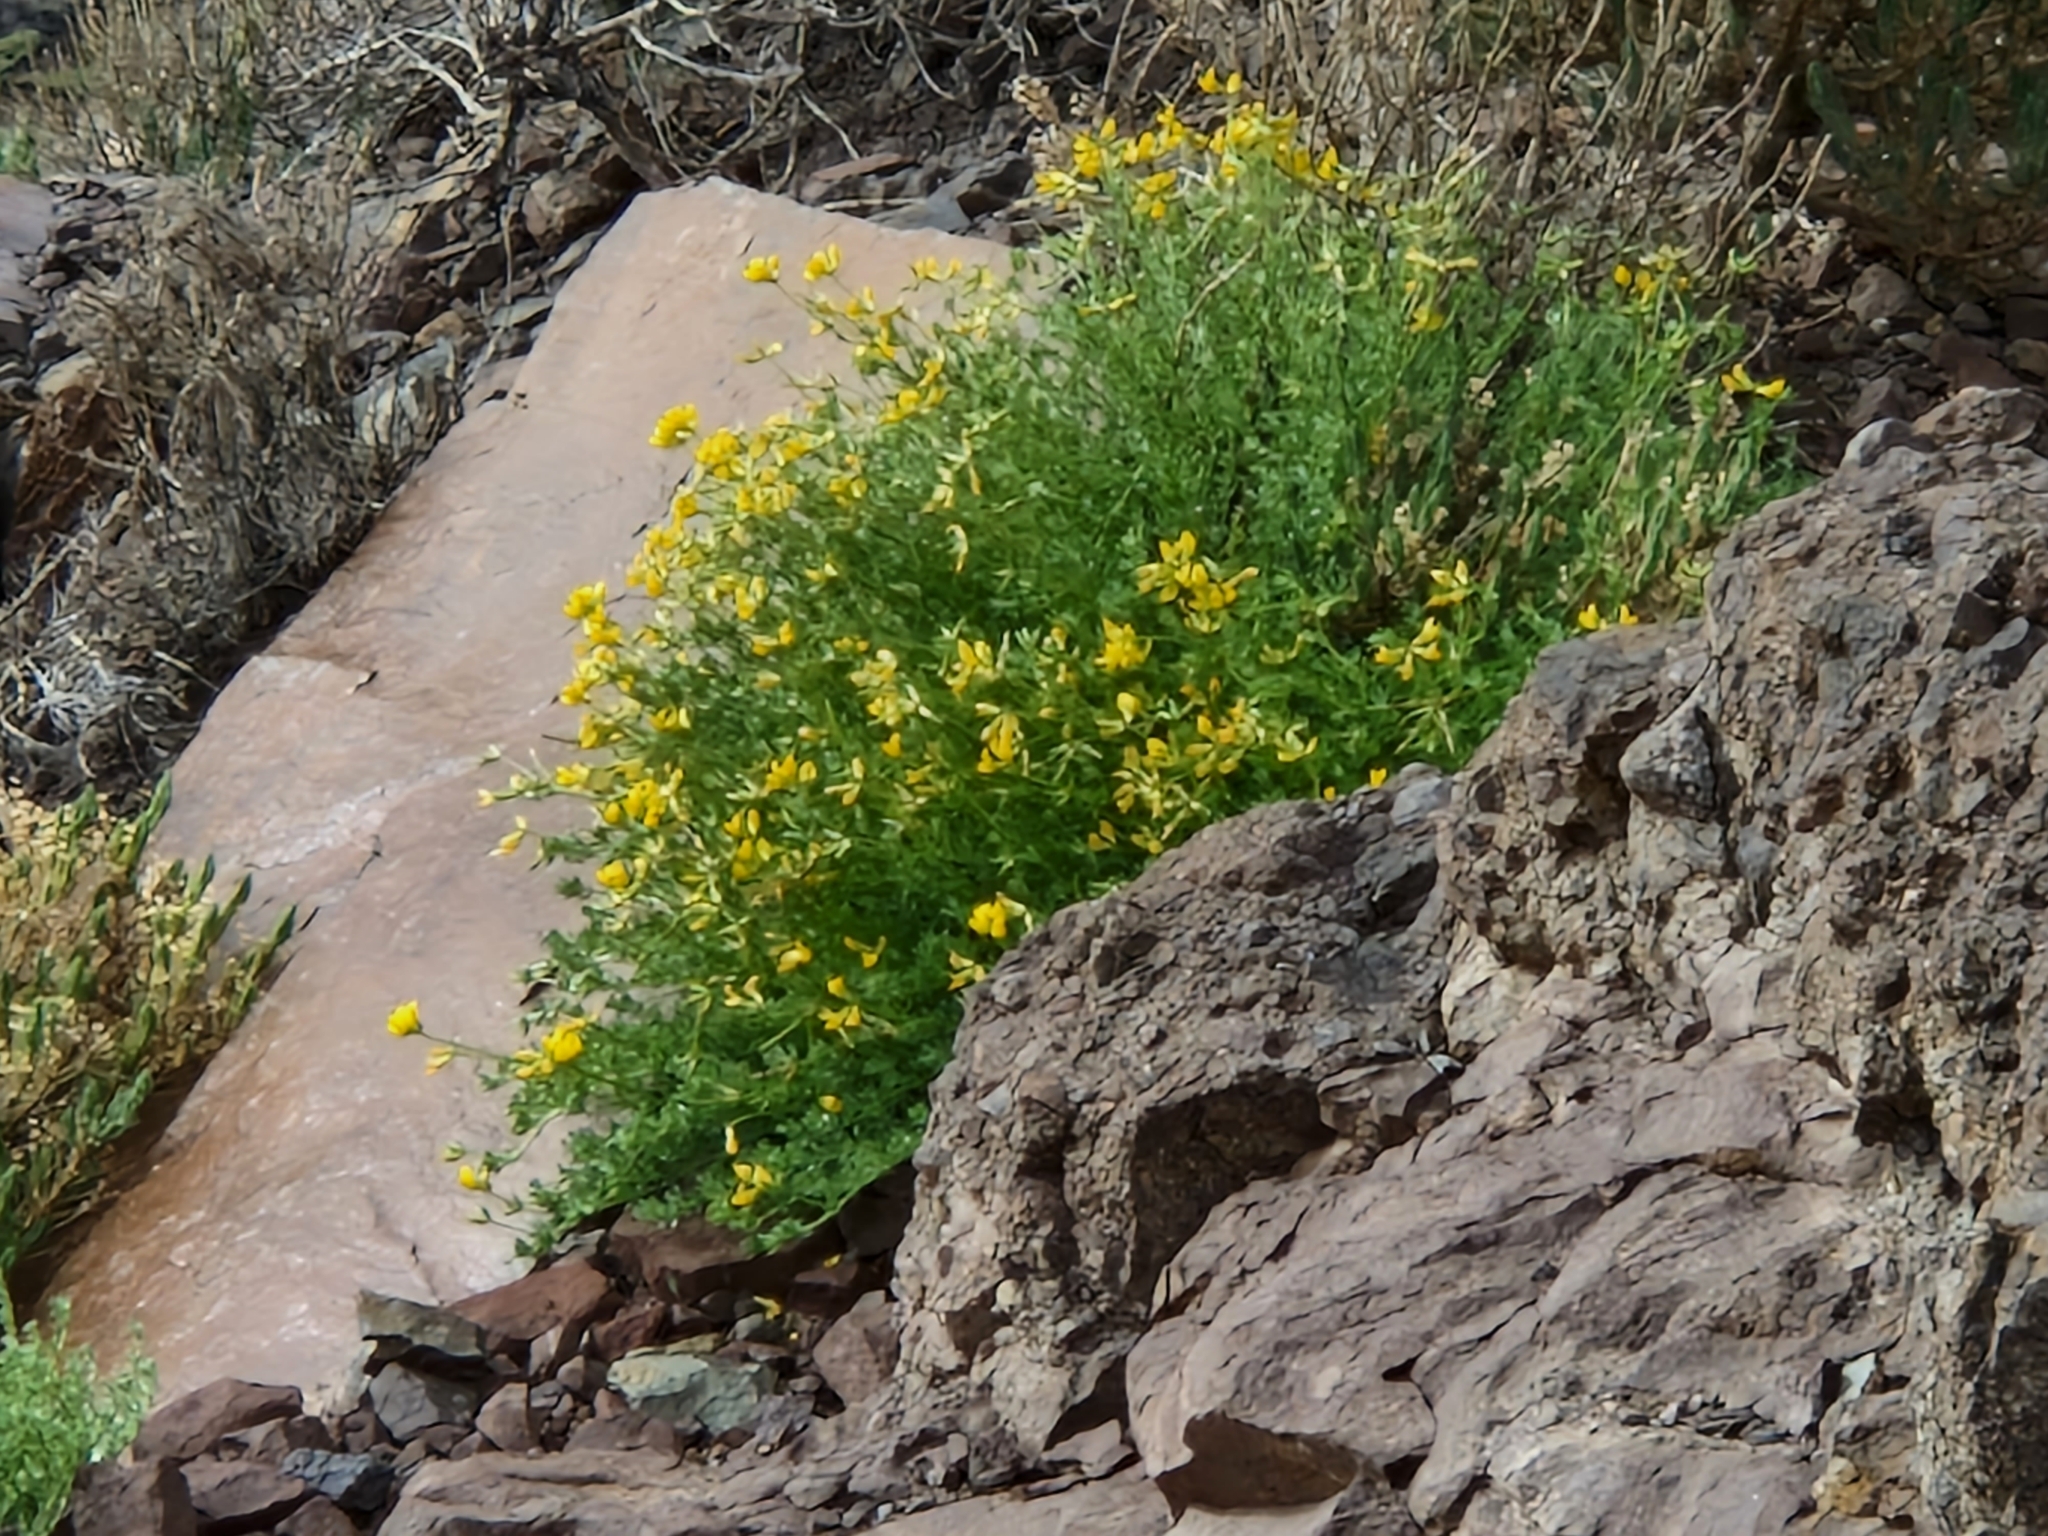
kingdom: Plantae
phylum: Tracheophyta
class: Magnoliopsida
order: Fabales
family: Fabaceae
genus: Lotus
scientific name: Lotus campylocladus
